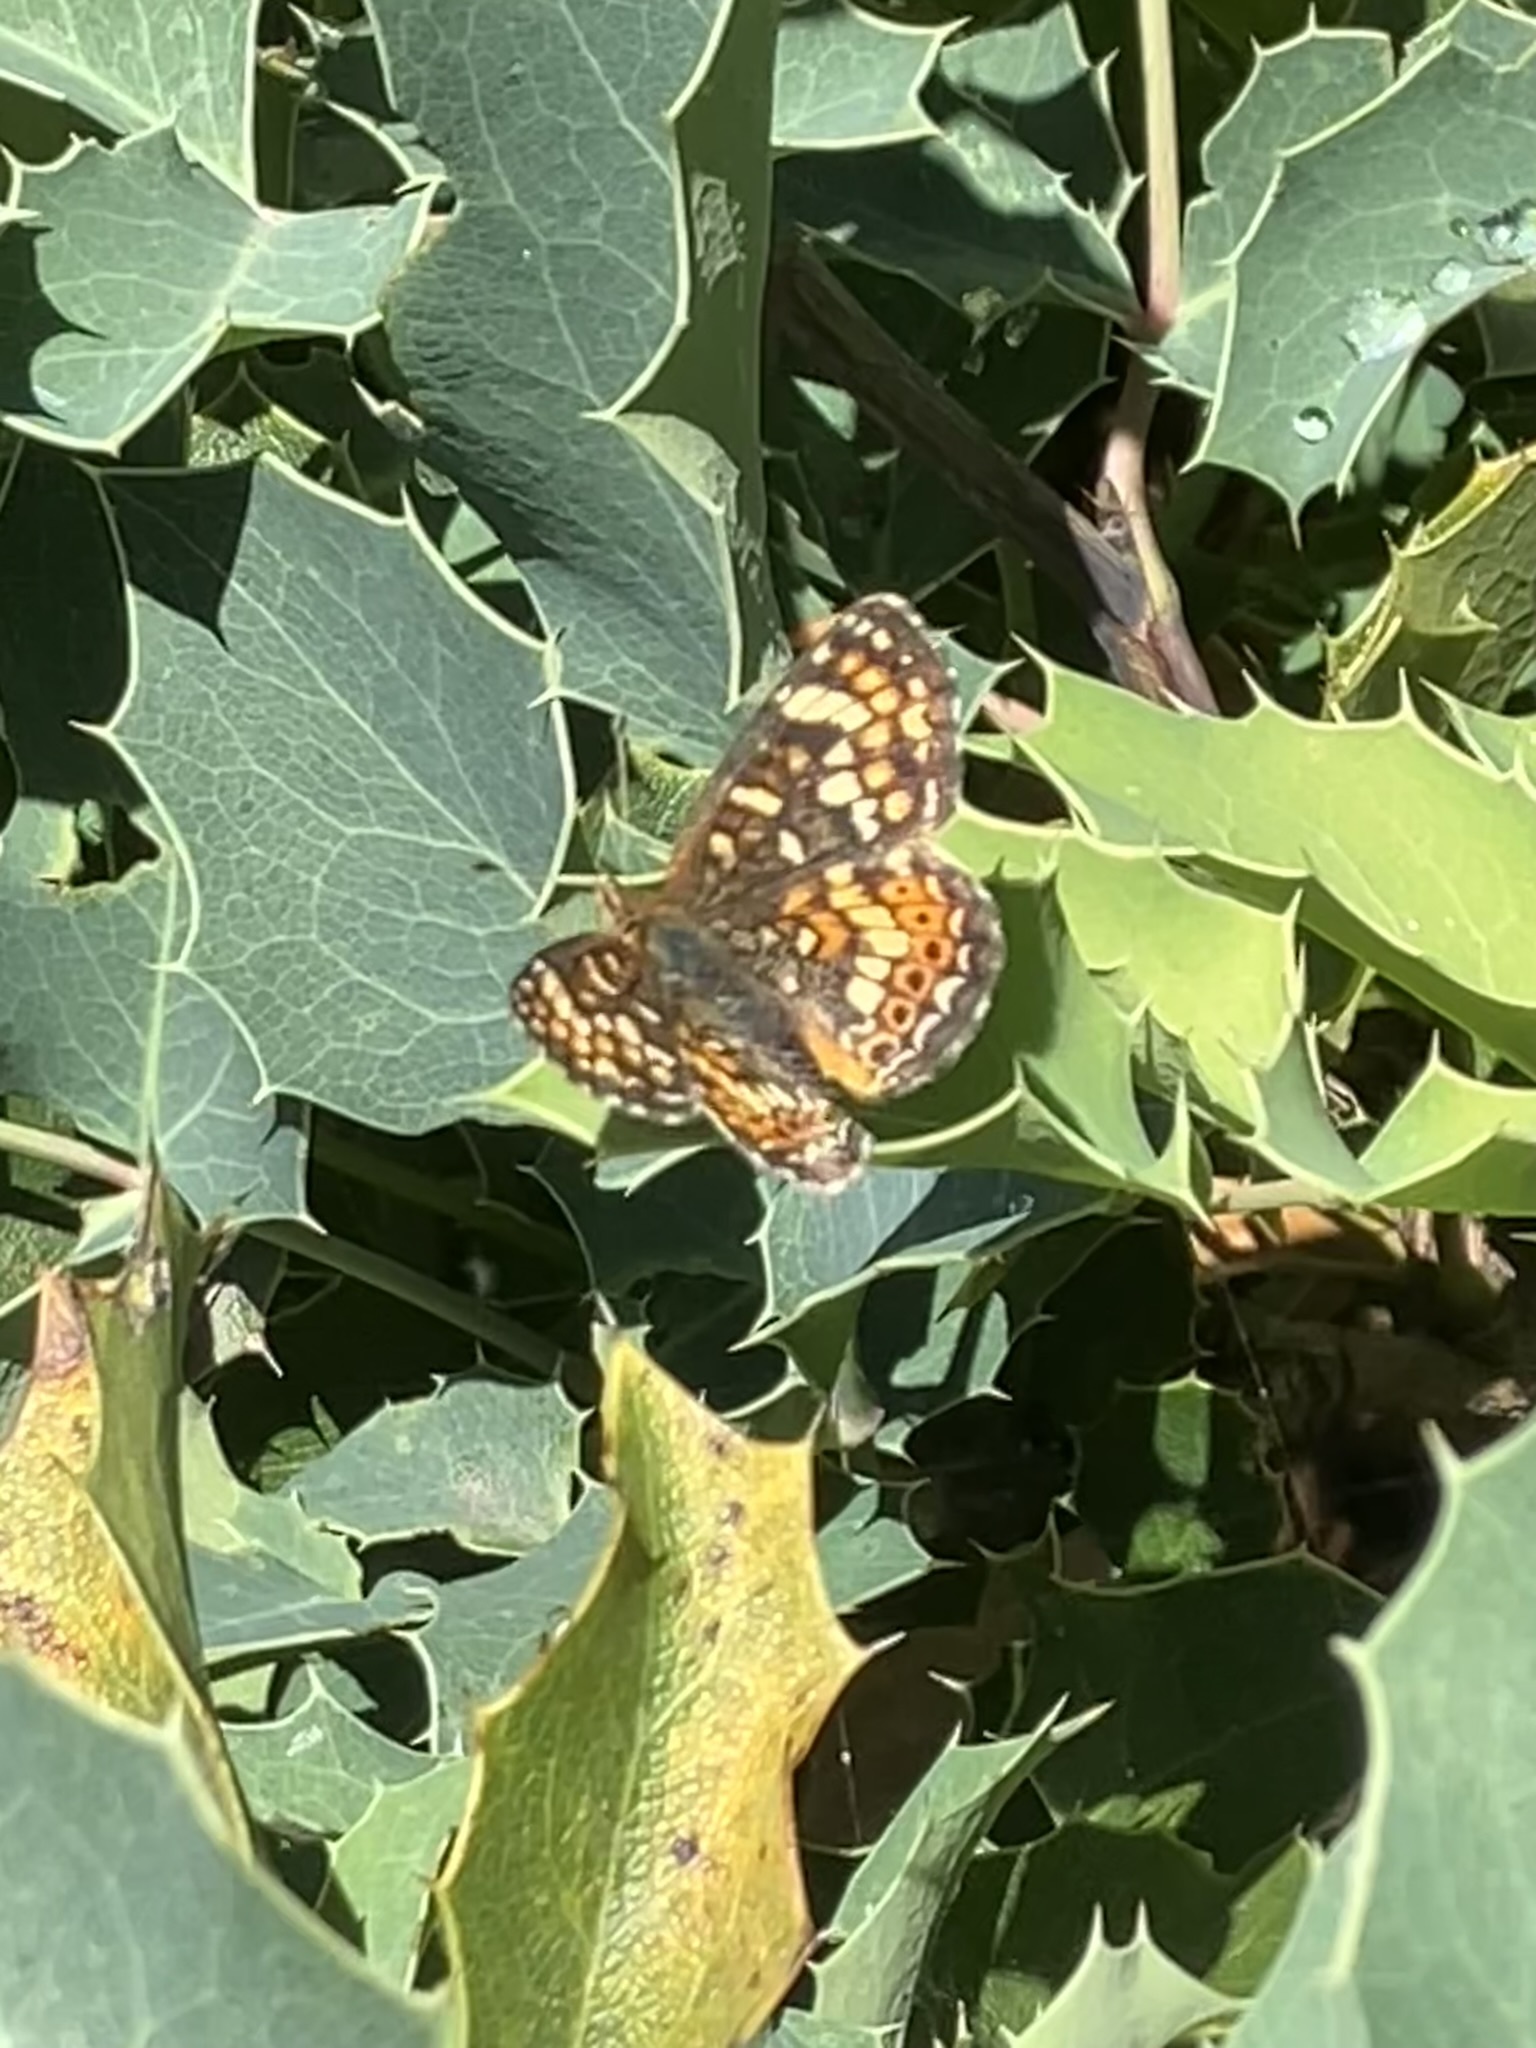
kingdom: Animalia
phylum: Arthropoda
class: Insecta
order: Lepidoptera
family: Nymphalidae
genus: Phyciodes
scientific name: Phyciodes tharos
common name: Pearl crescent
